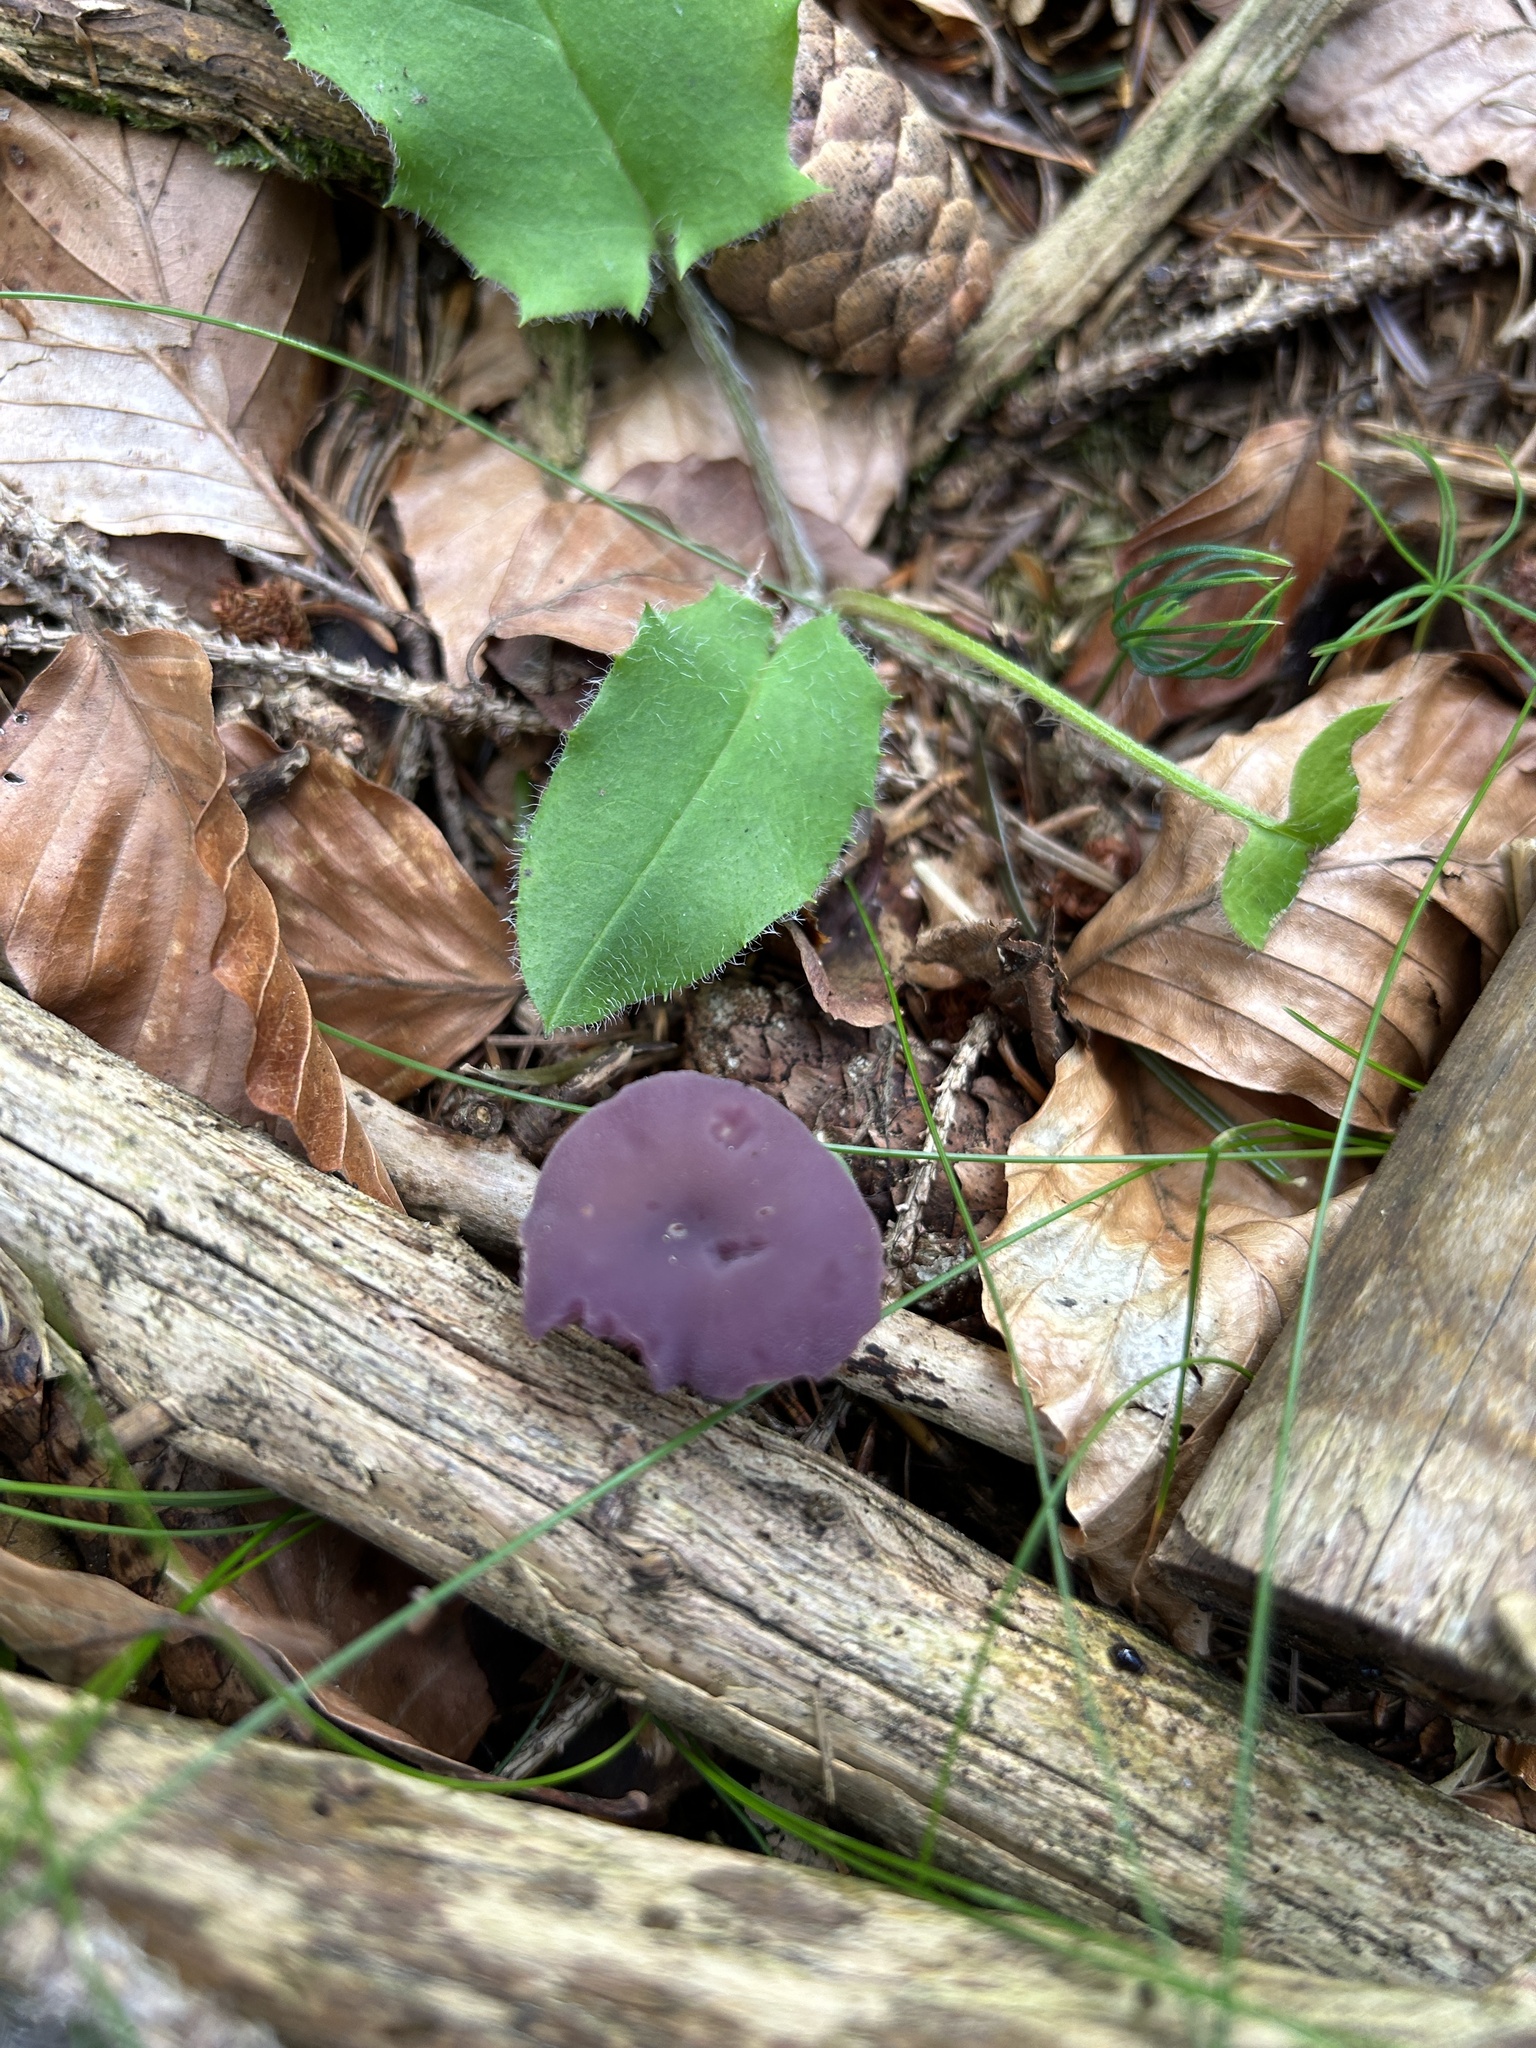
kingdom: Fungi
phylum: Basidiomycota
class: Agaricomycetes
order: Agaricales
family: Hydnangiaceae
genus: Laccaria
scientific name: Laccaria amethystina
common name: Amethyst deceiver
